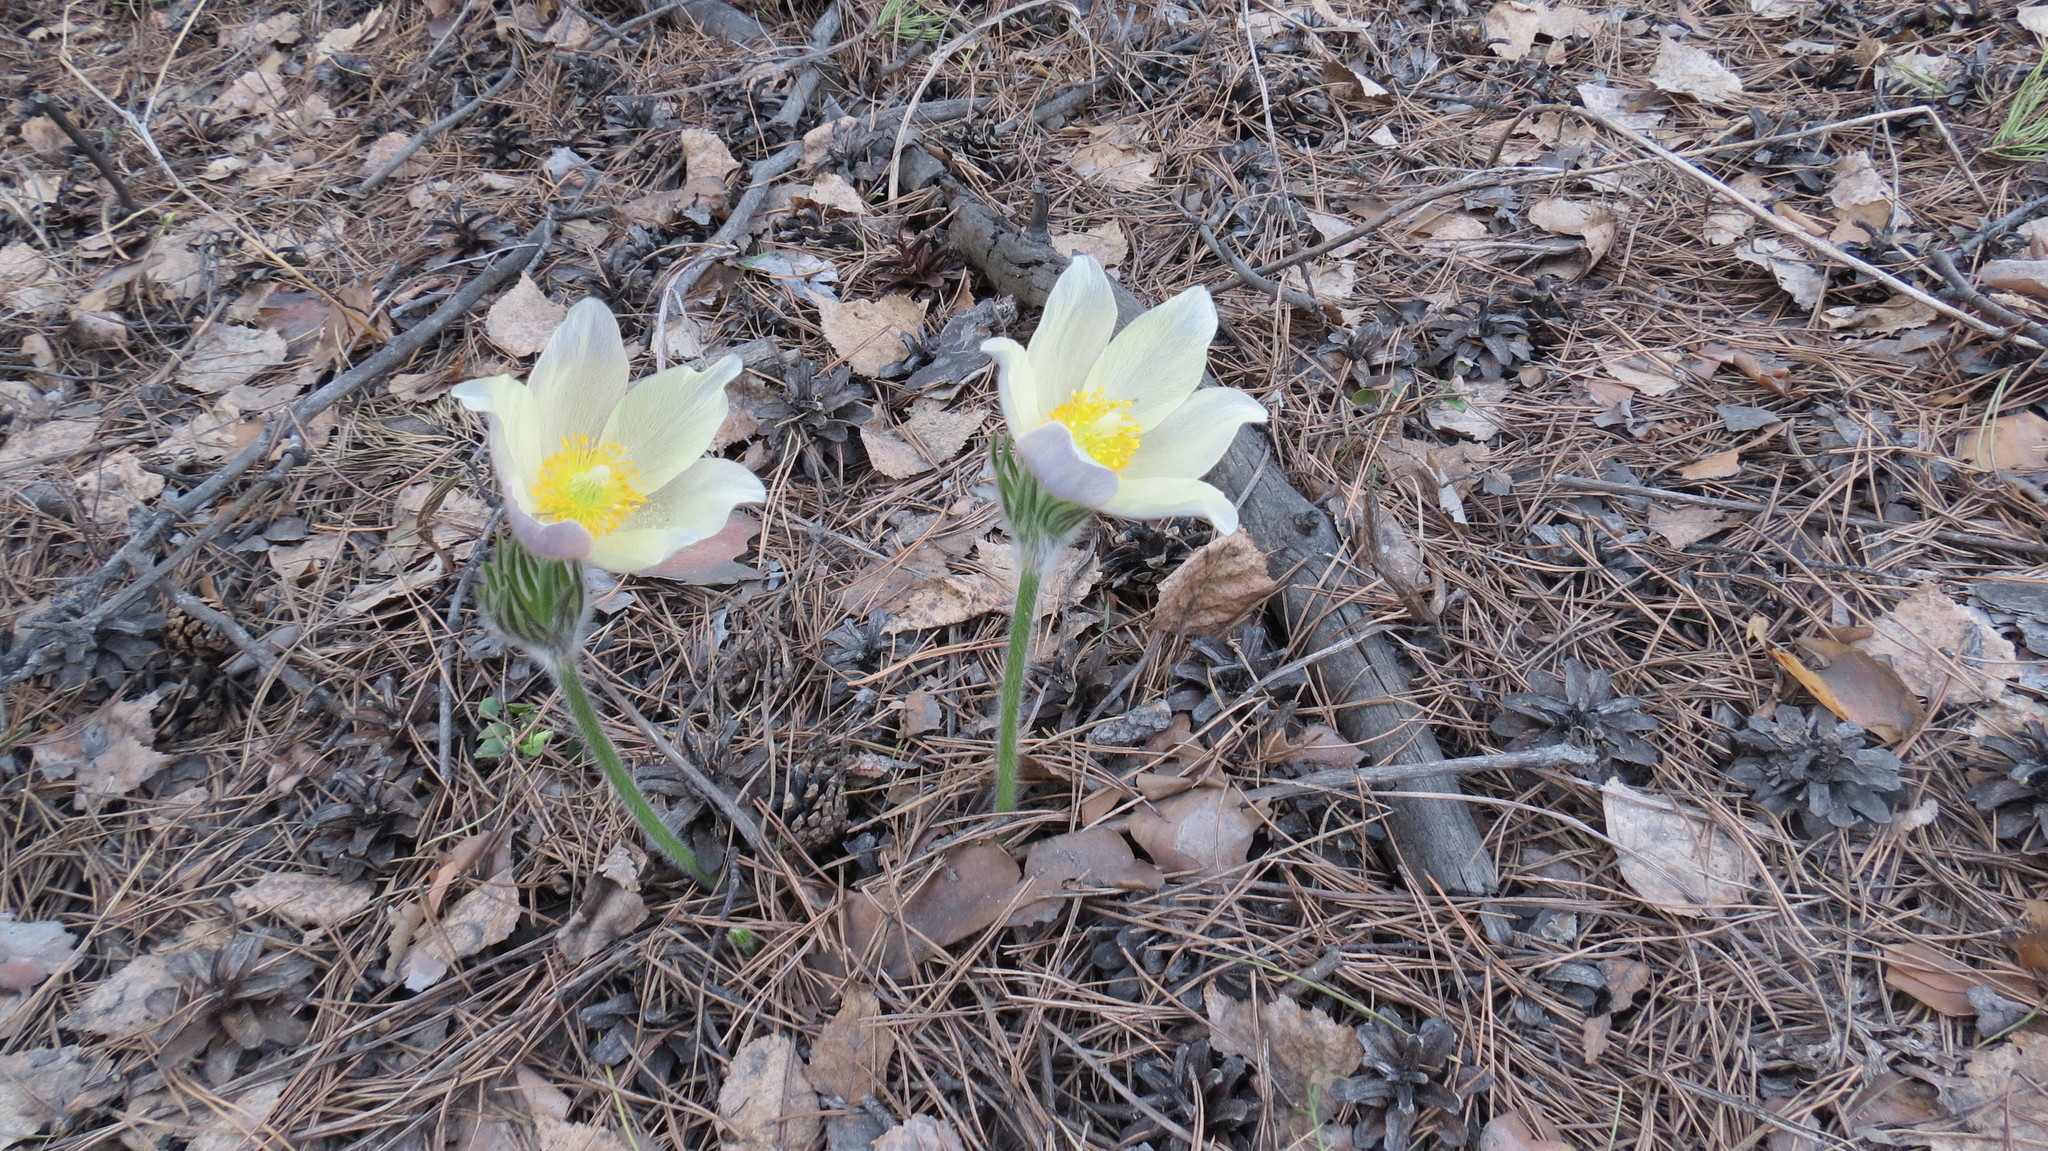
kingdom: Plantae
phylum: Tracheophyta
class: Magnoliopsida
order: Ranunculales
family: Ranunculaceae
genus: Pulsatilla
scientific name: Pulsatilla patens
